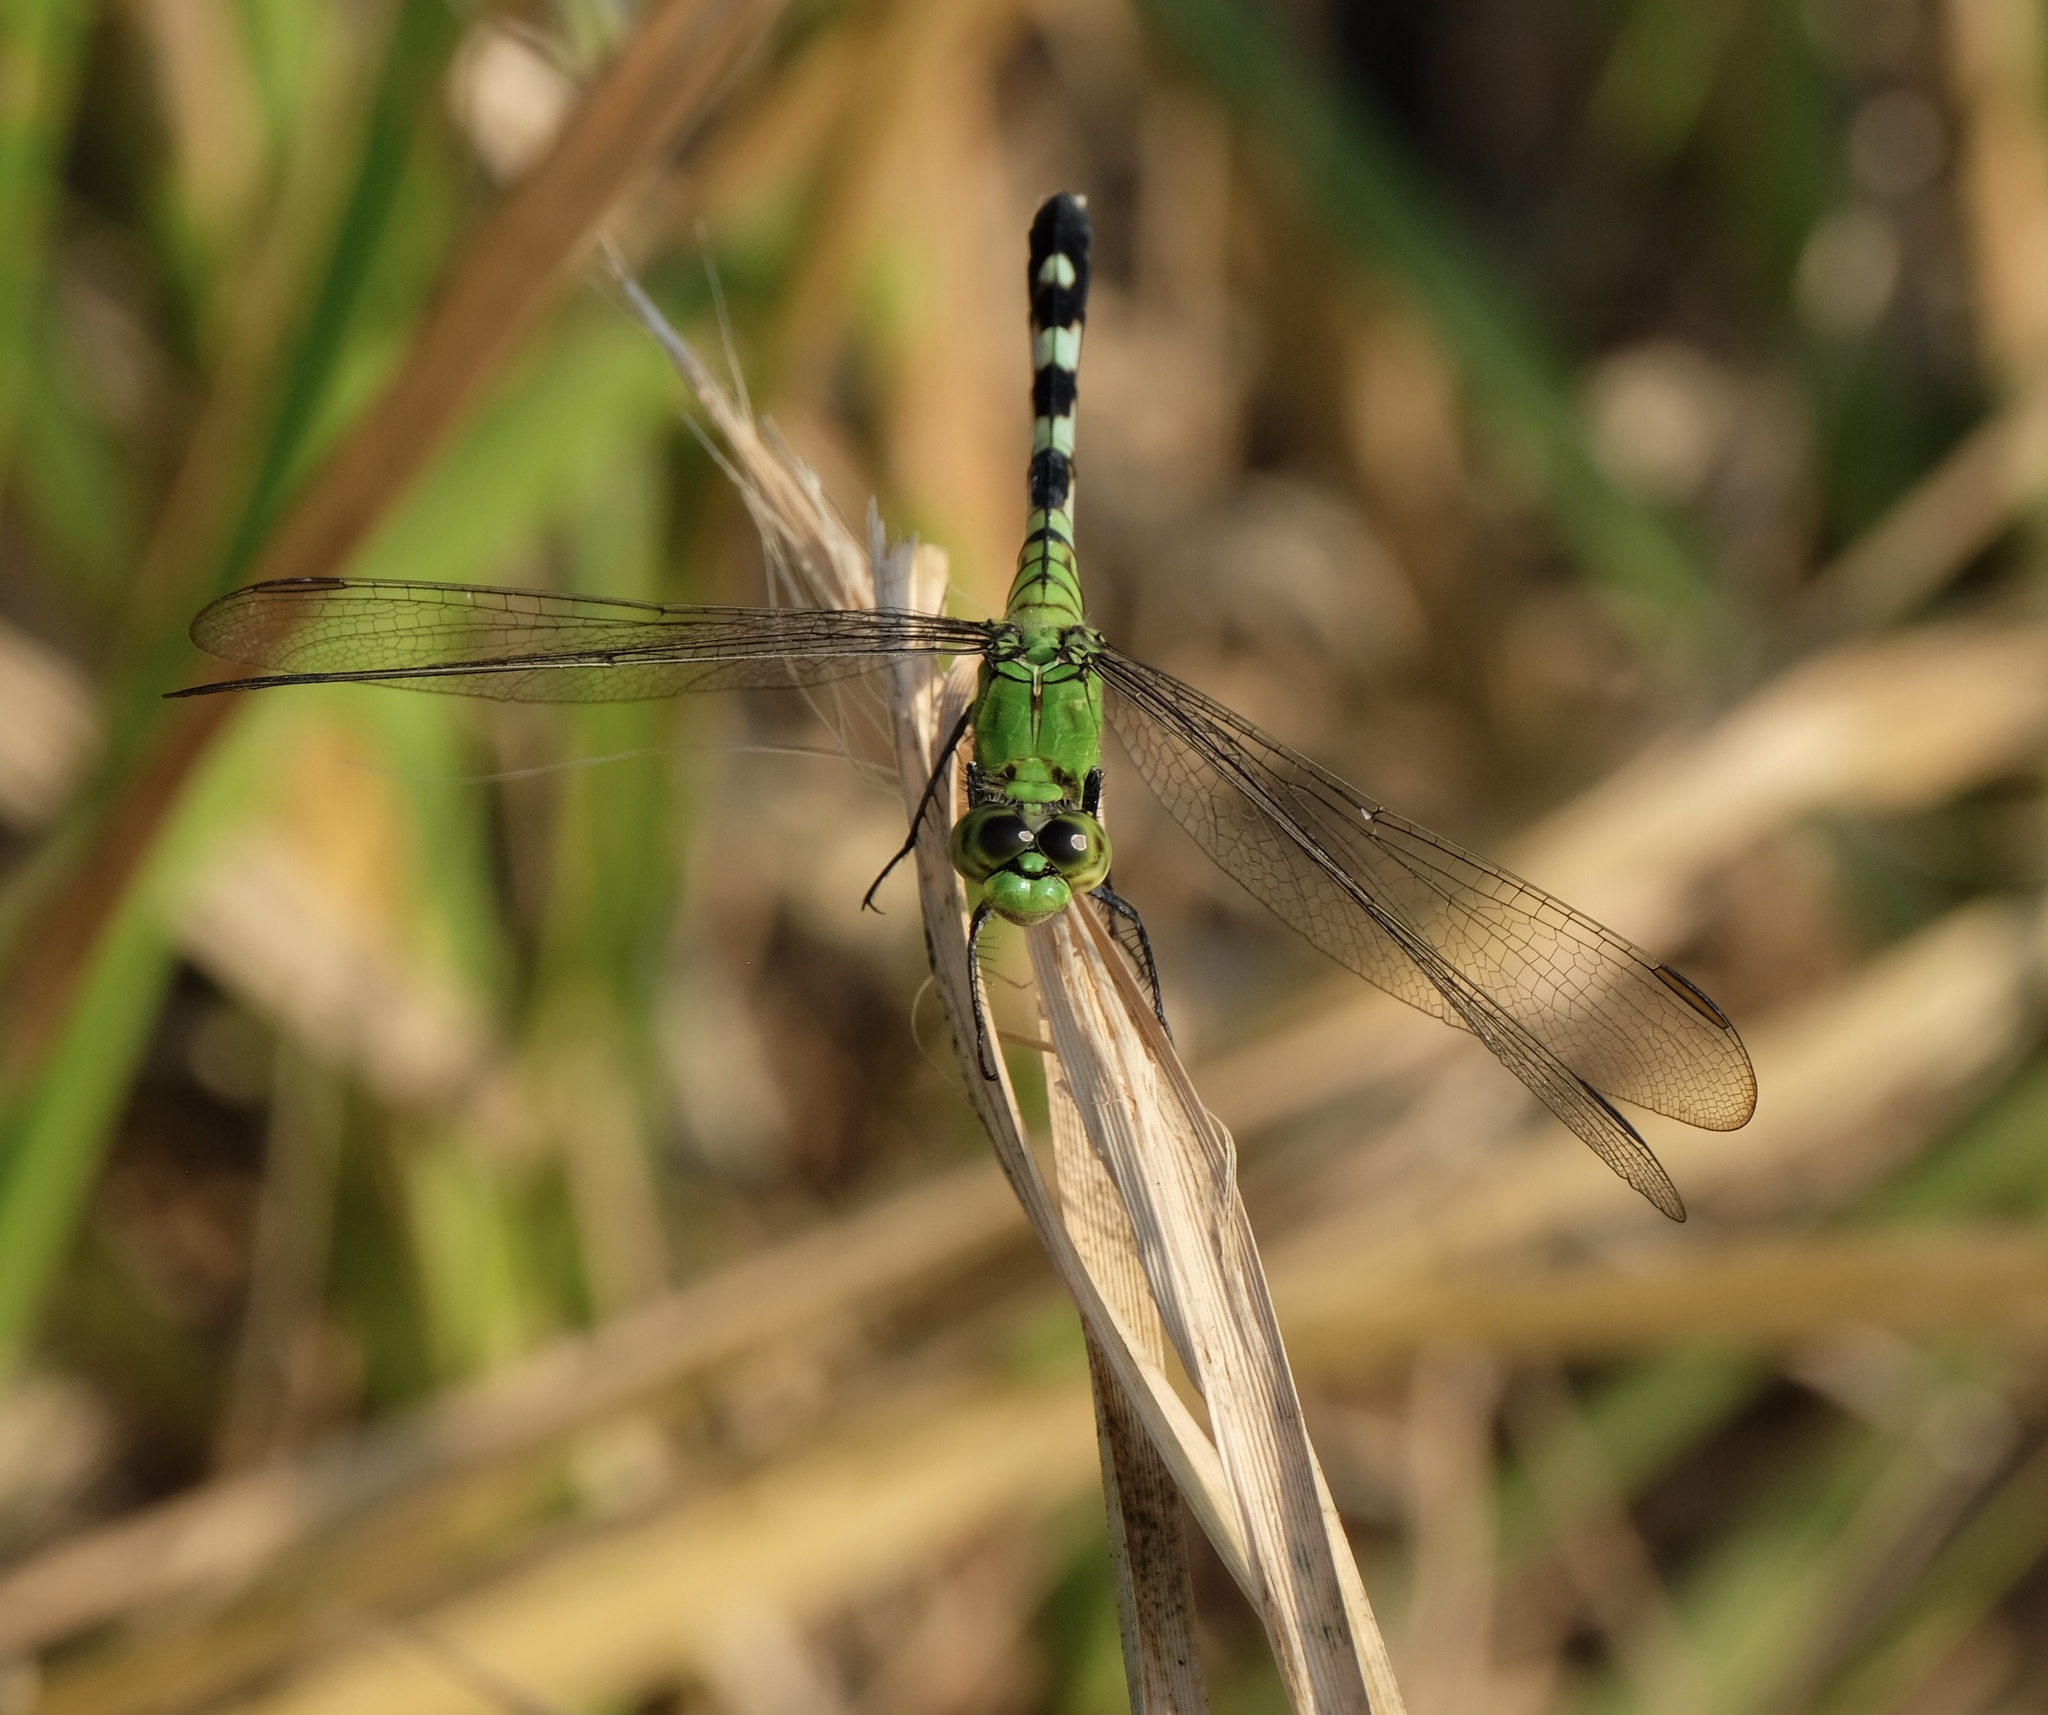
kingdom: Animalia
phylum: Arthropoda
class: Insecta
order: Odonata
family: Libellulidae
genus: Erythemis
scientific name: Erythemis simplicicollis
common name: Eastern pondhawk
